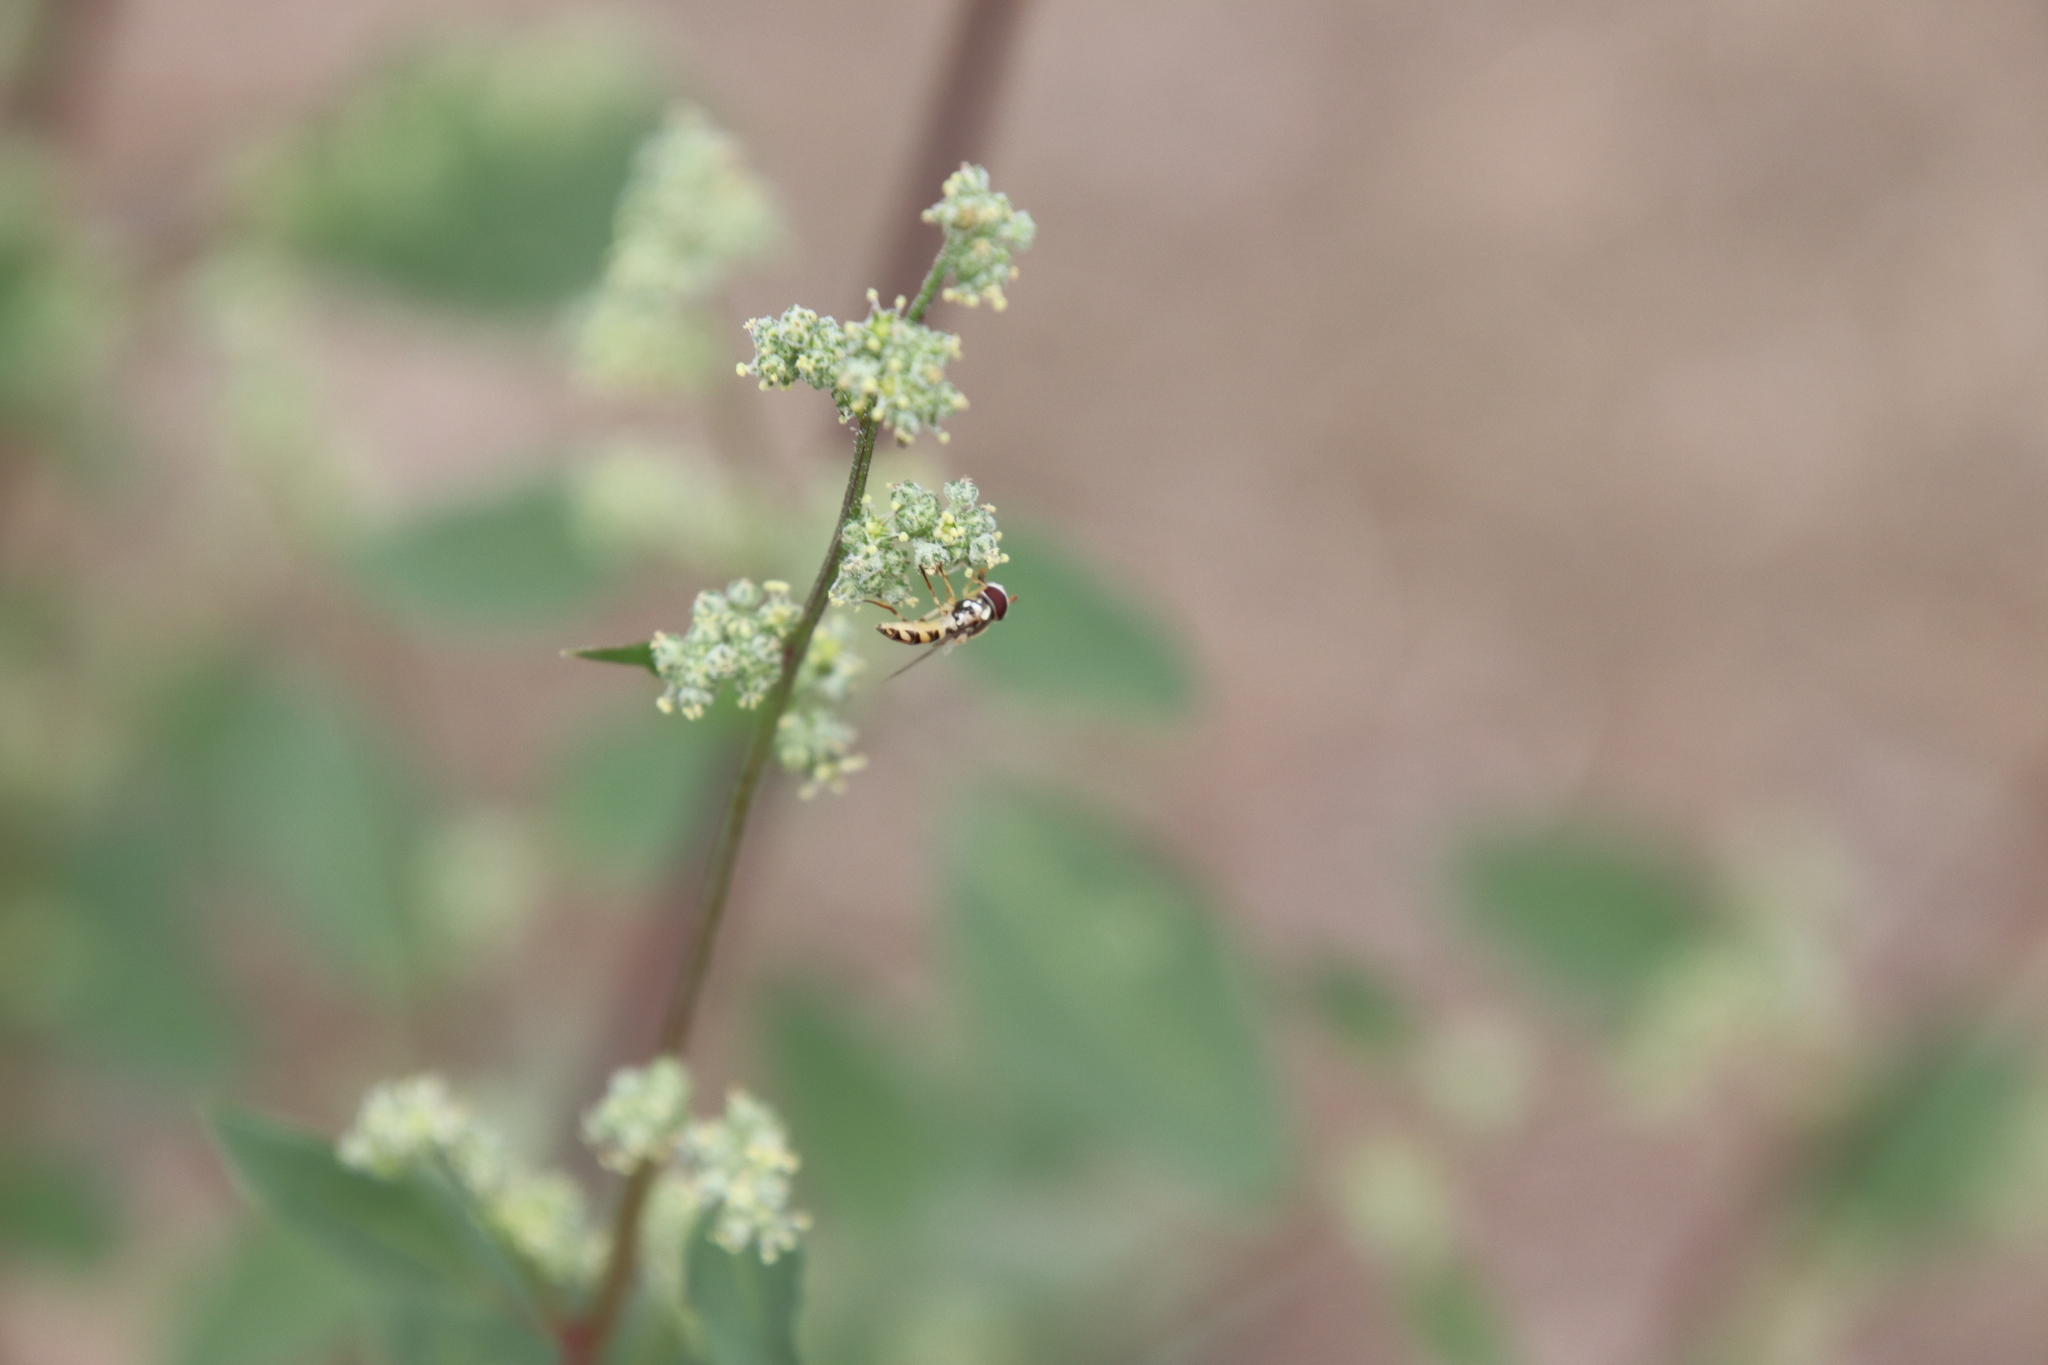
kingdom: Animalia
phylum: Arthropoda
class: Insecta
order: Diptera
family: Syrphidae
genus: Allograpta
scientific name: Allograpta exotica
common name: Syrphid fly
